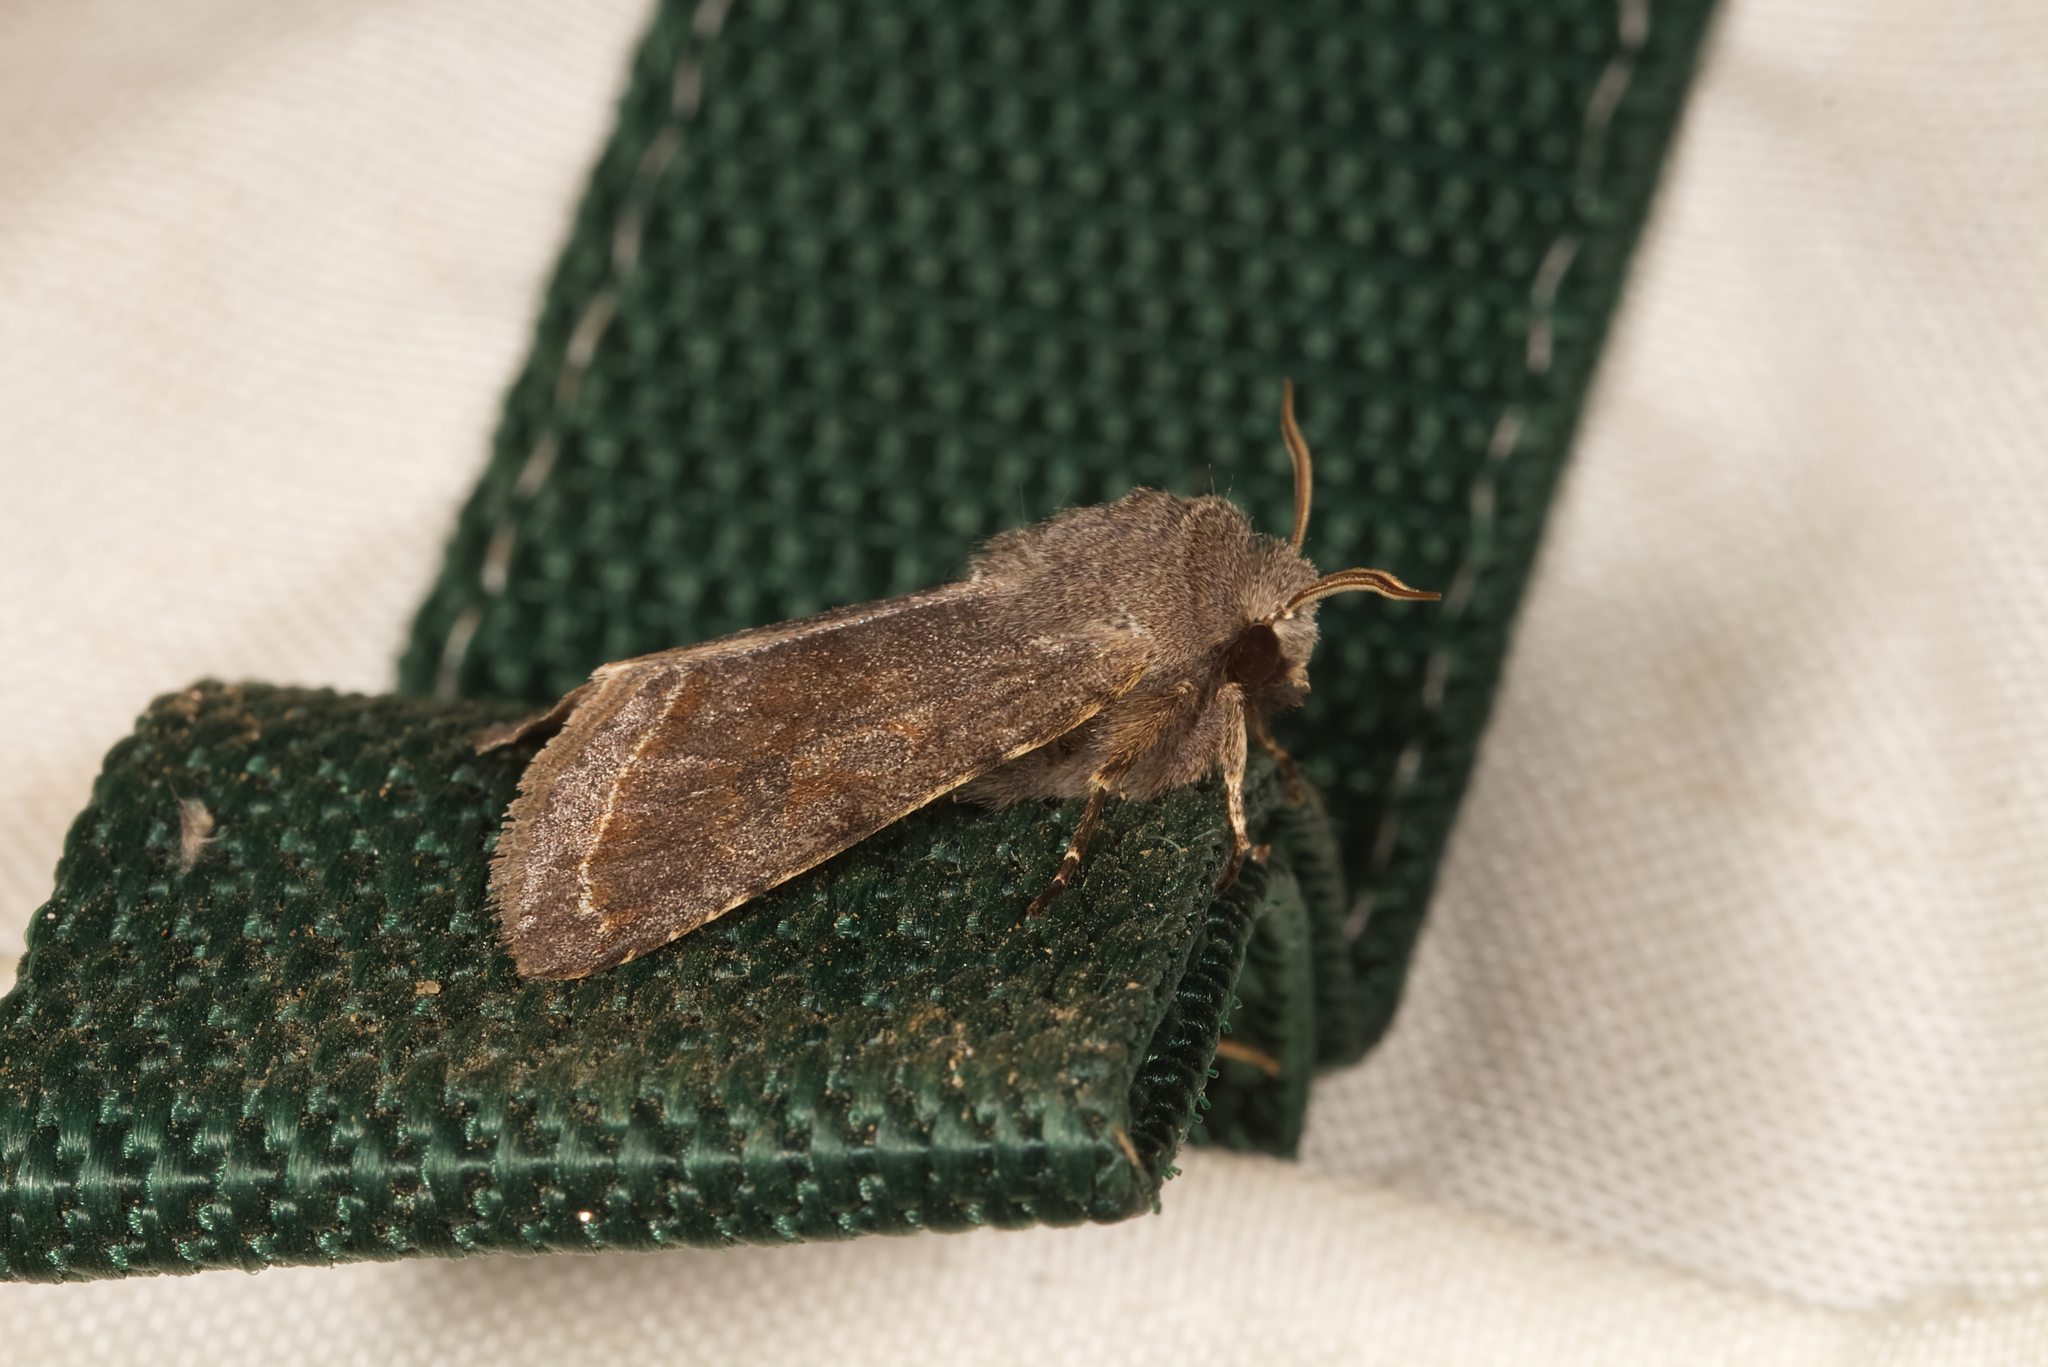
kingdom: Animalia
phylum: Arthropoda
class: Insecta
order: Lepidoptera
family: Noctuidae
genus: Orthosia
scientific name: Orthosia incerta
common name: Clouded drab
